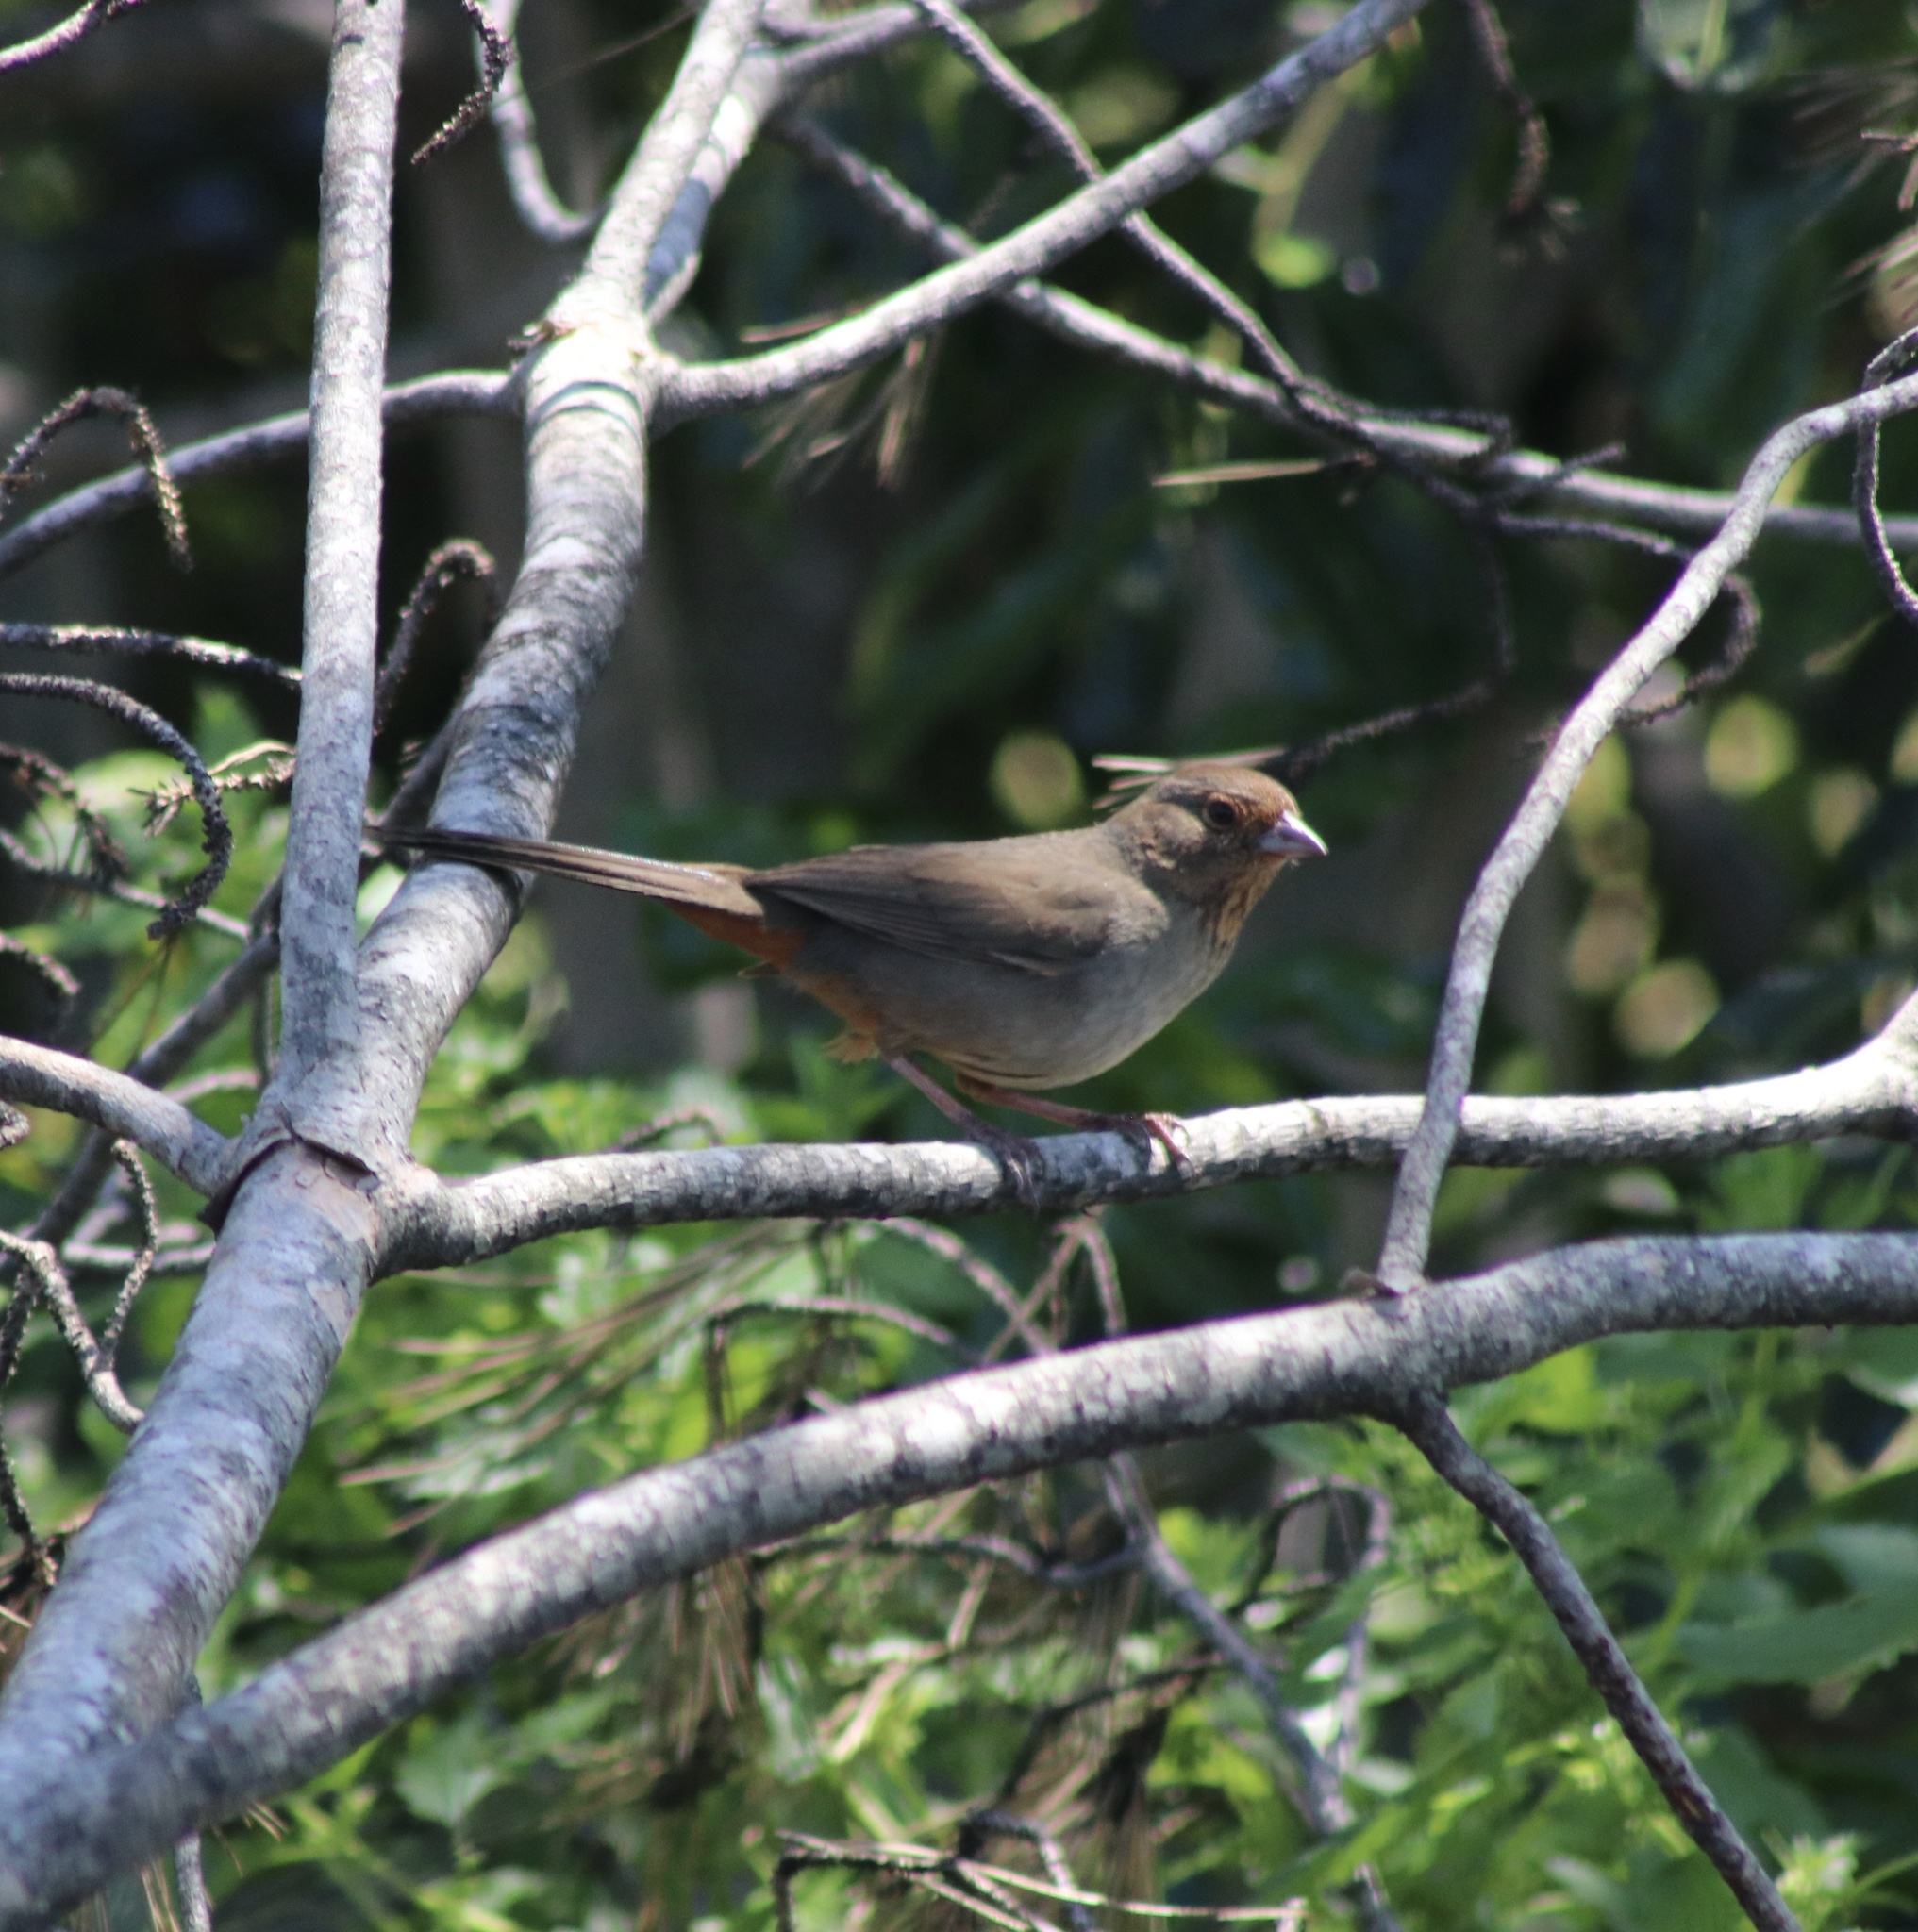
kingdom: Animalia
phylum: Chordata
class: Aves
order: Passeriformes
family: Passerellidae
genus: Melozone
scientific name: Melozone crissalis
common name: California towhee
